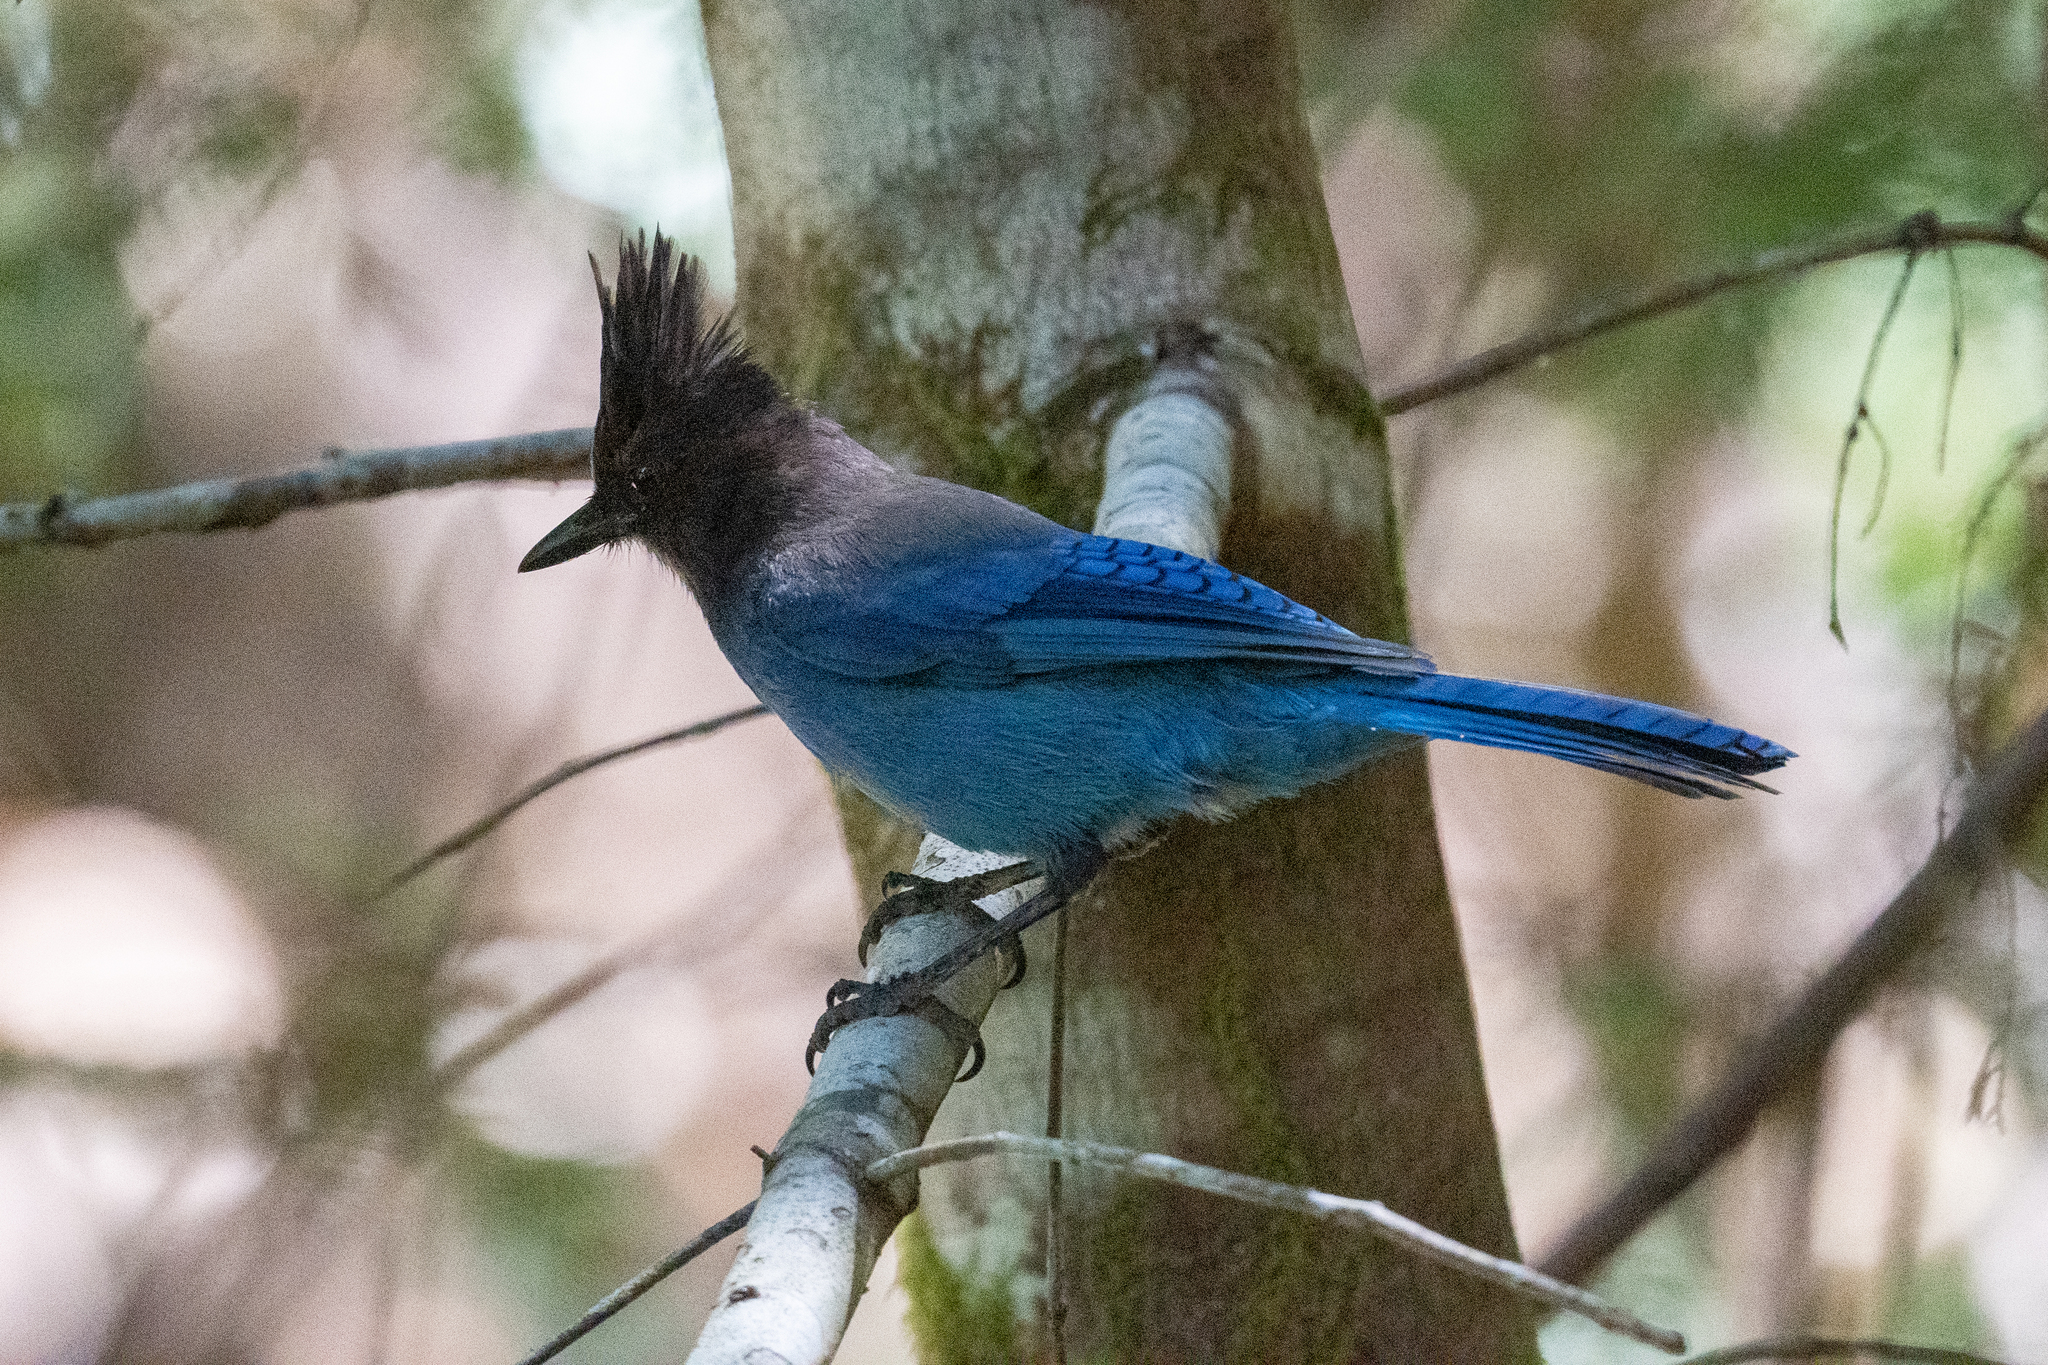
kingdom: Animalia
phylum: Chordata
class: Aves
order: Passeriformes
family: Corvidae
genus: Cyanocitta
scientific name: Cyanocitta stelleri
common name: Steller's jay
